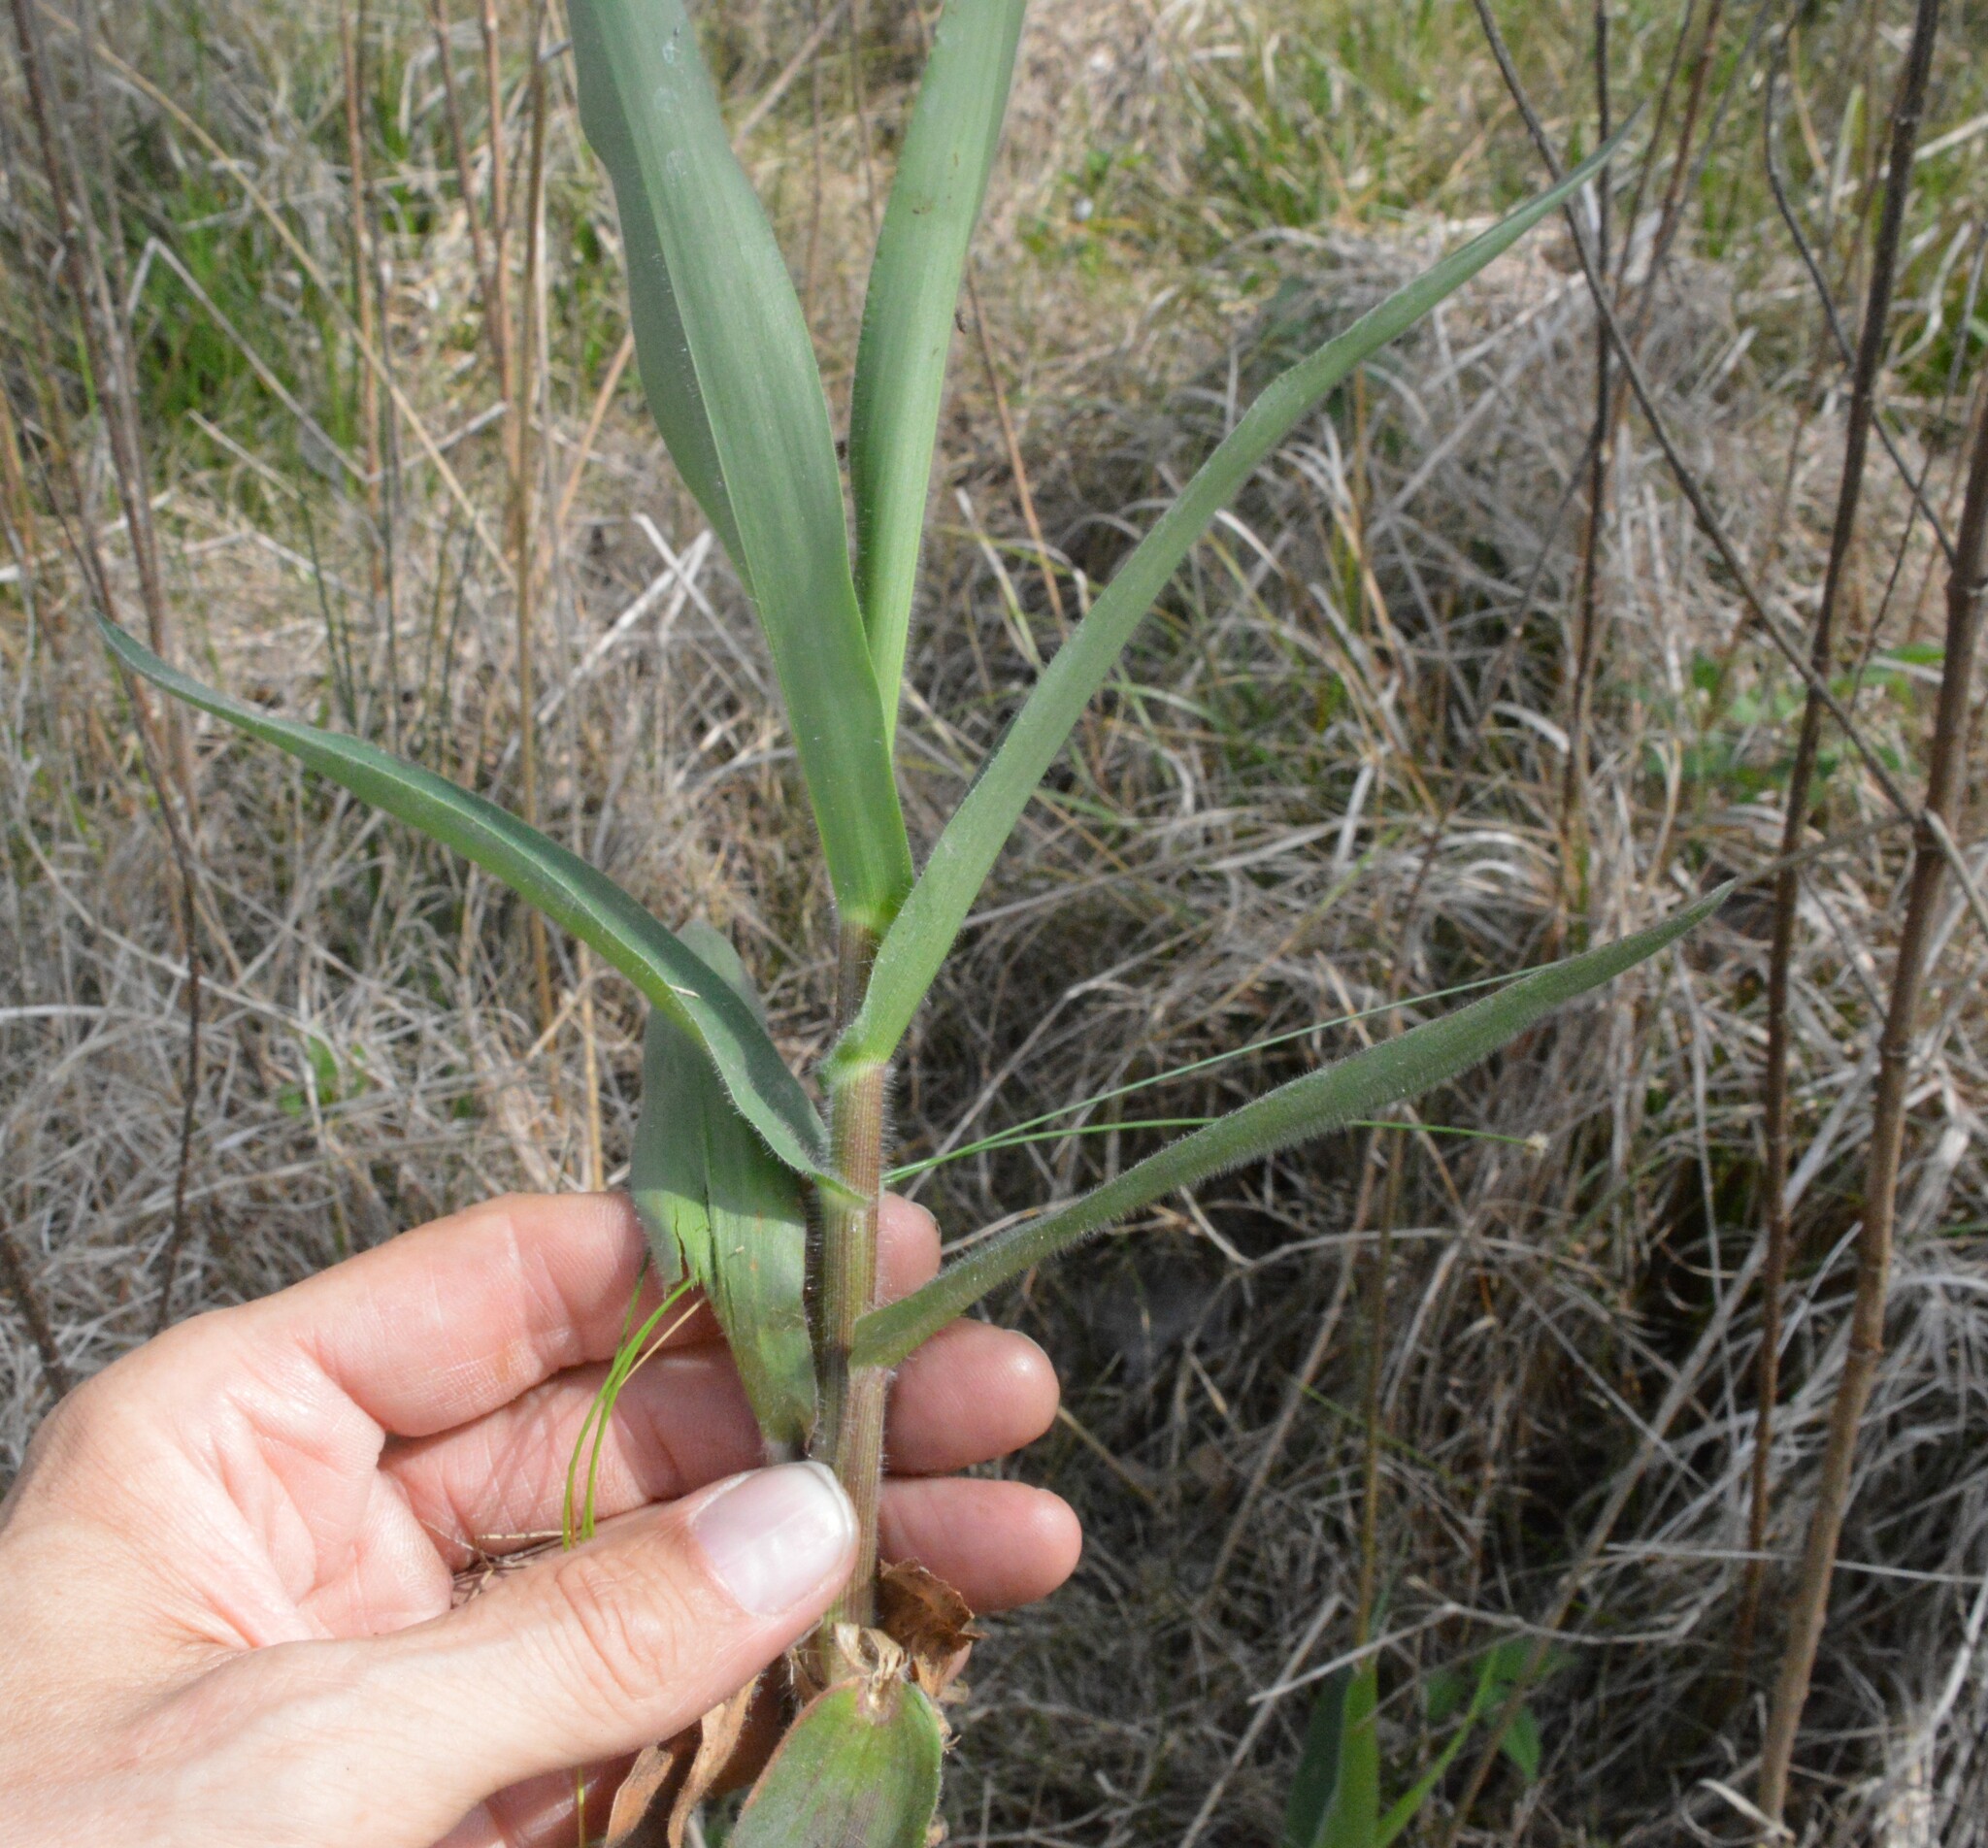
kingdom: Plantae
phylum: Tracheophyta
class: Liliopsida
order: Poales
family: Poaceae
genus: Dichanthelium
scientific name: Dichanthelium scoparium
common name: Velvety panic grass
